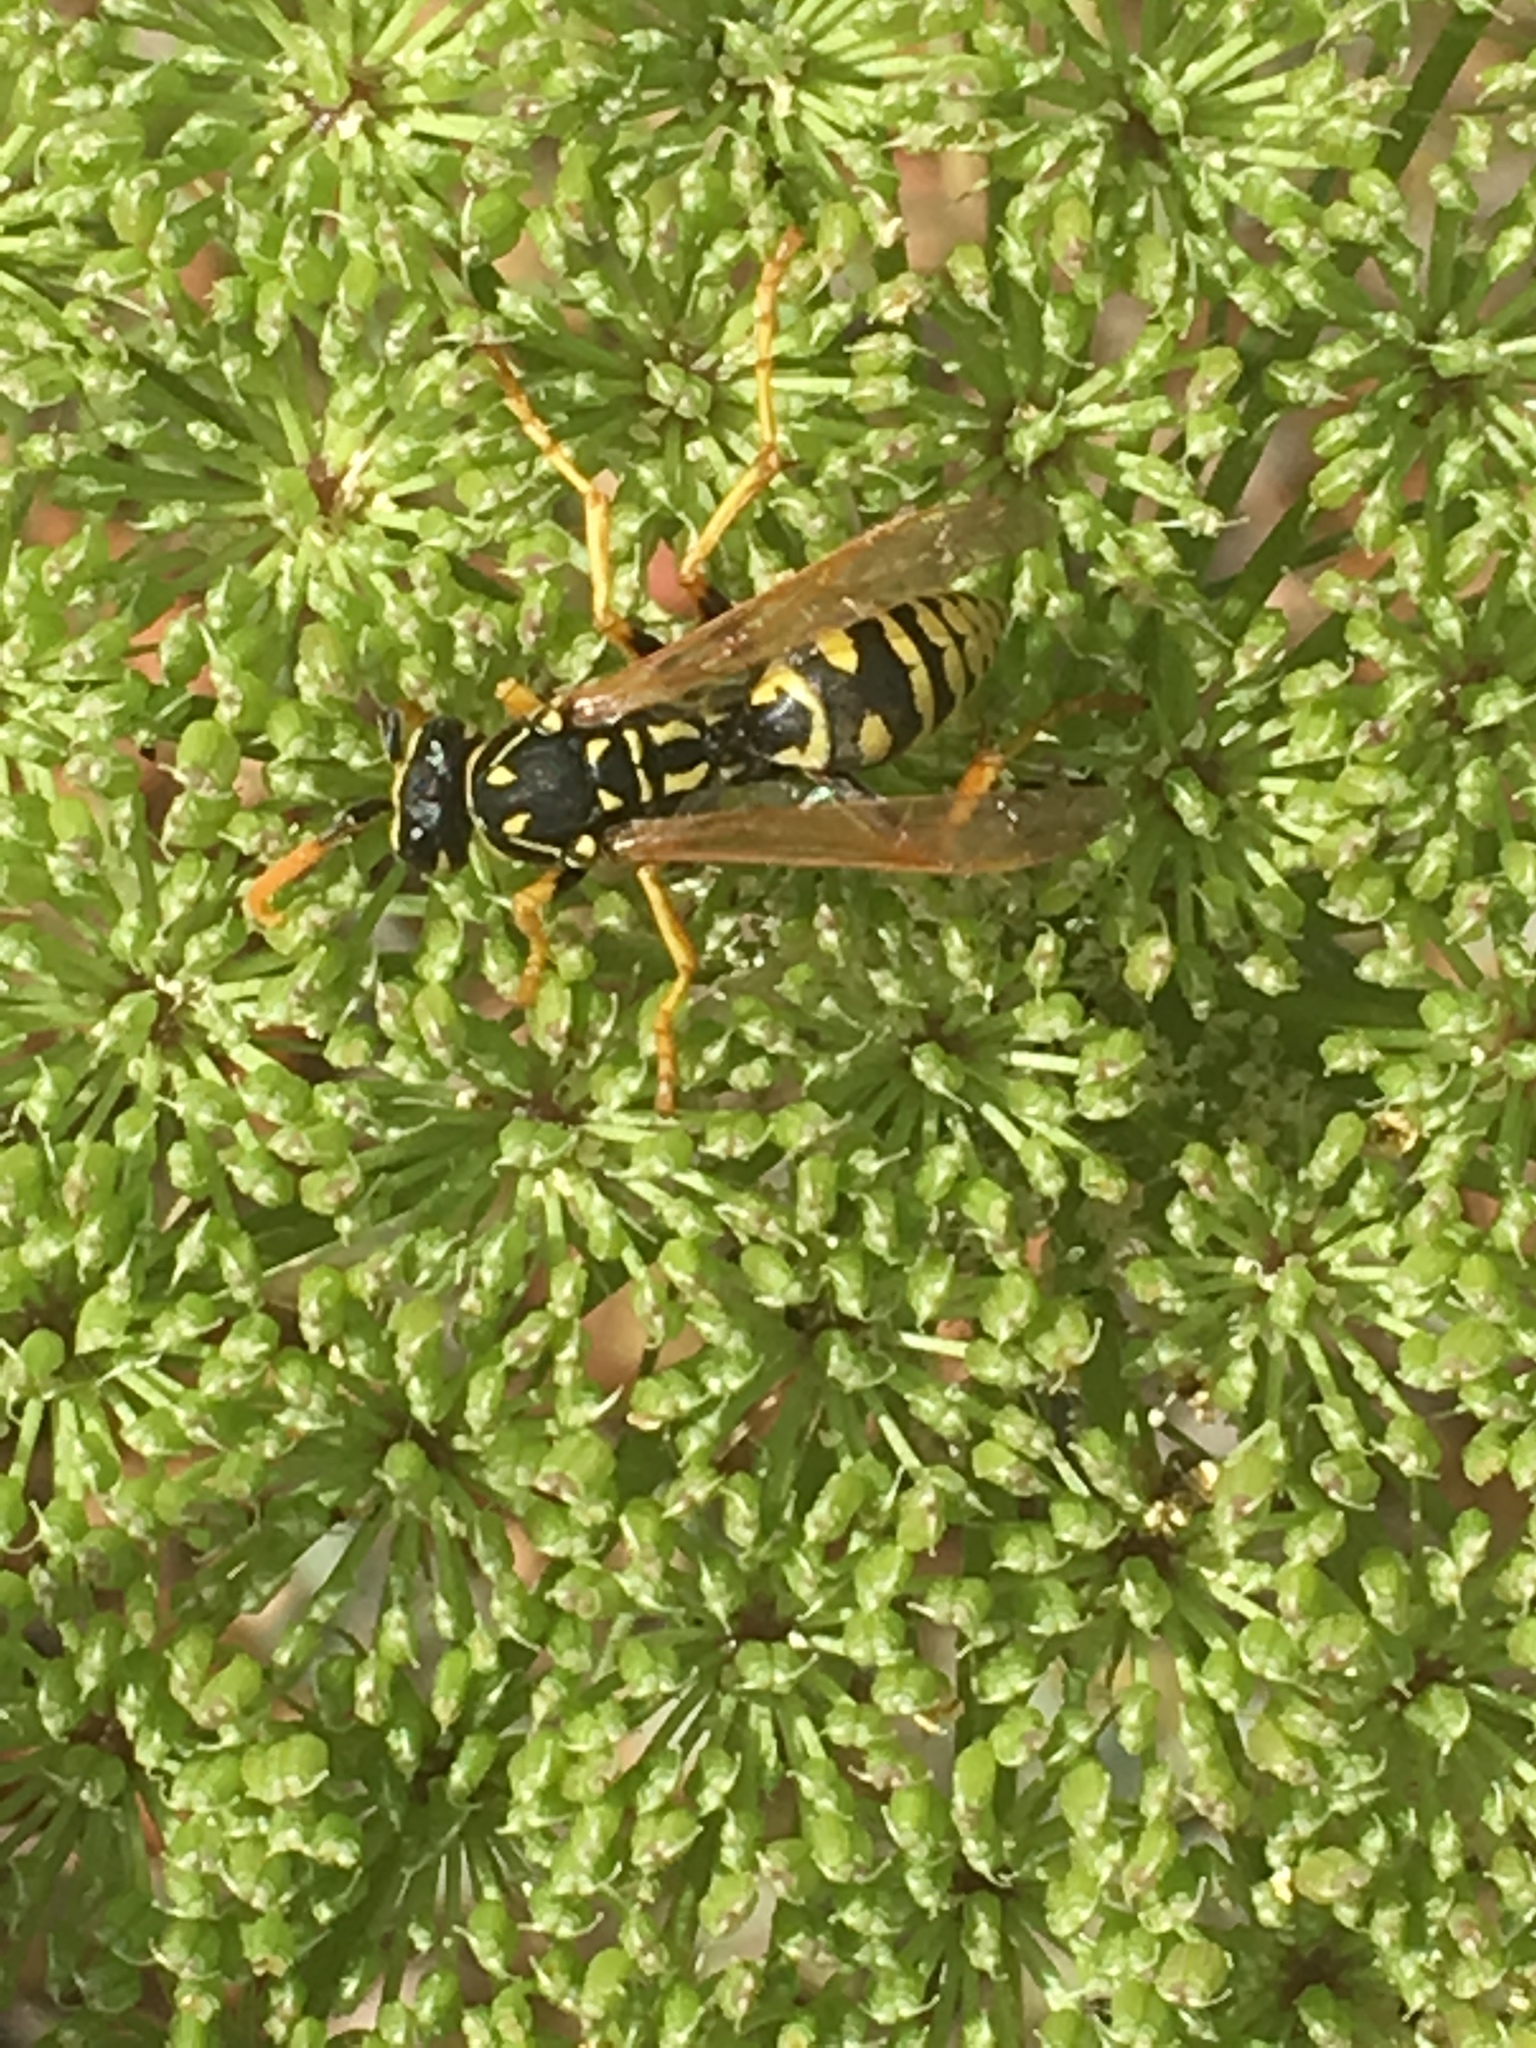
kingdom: Animalia
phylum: Arthropoda
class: Insecta
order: Hymenoptera
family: Eumenidae
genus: Polistes
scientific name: Polistes dominula
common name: Paper wasp
